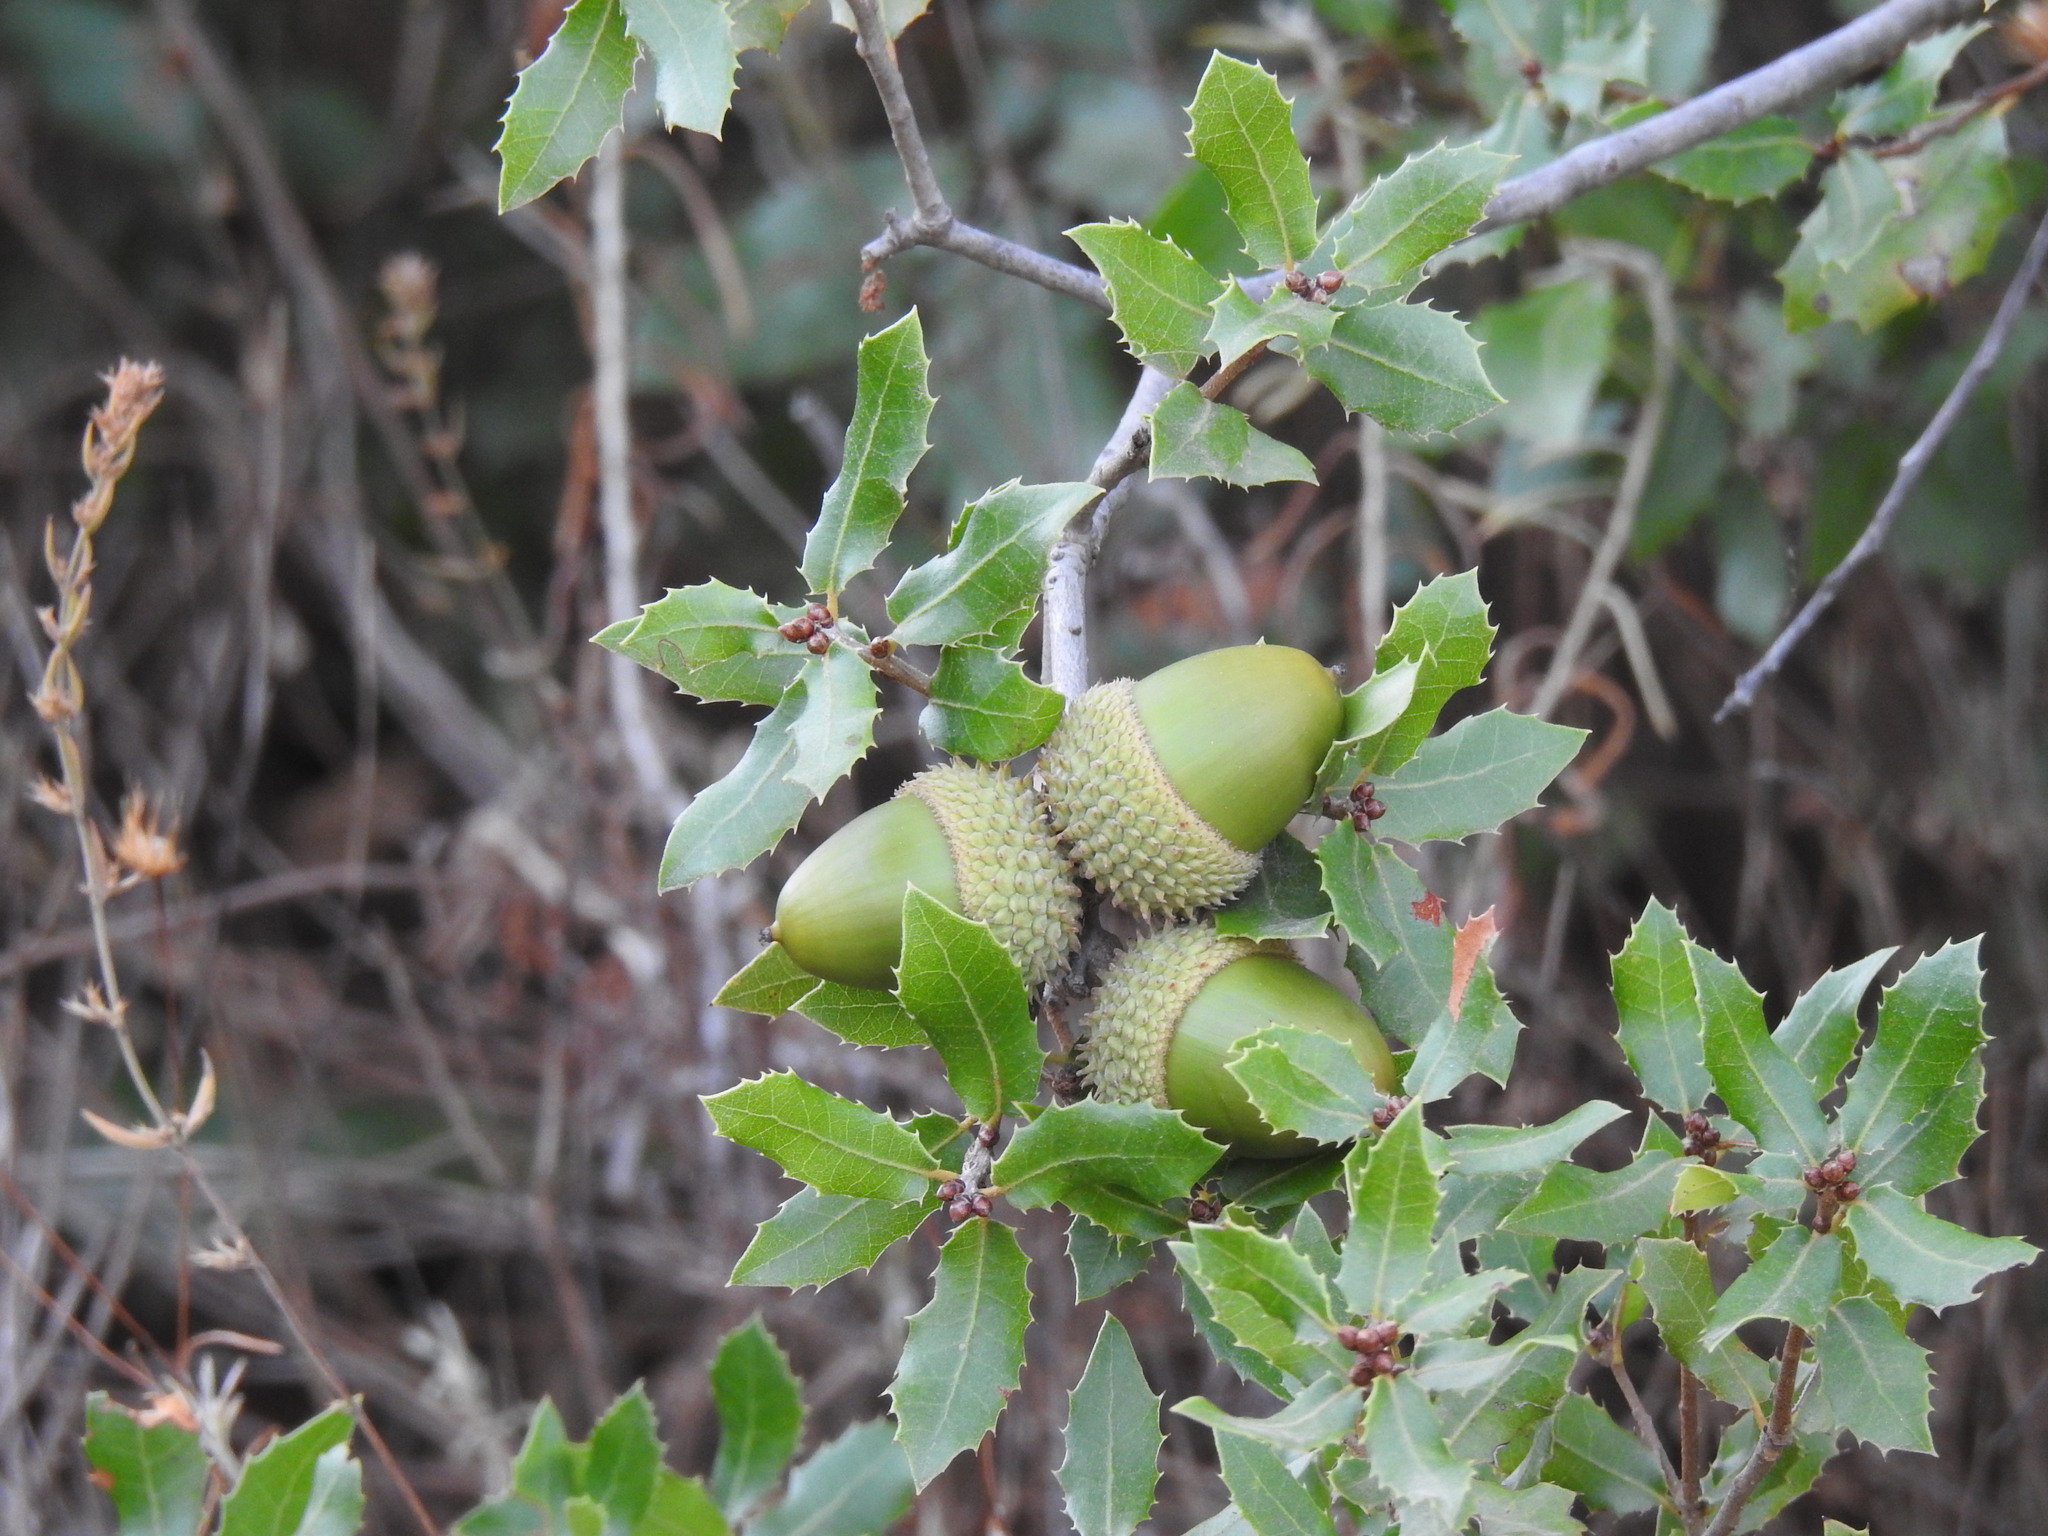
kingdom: Plantae
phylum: Tracheophyta
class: Magnoliopsida
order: Fagales
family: Fagaceae
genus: Quercus
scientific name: Quercus coccifera
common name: Kermes oak
